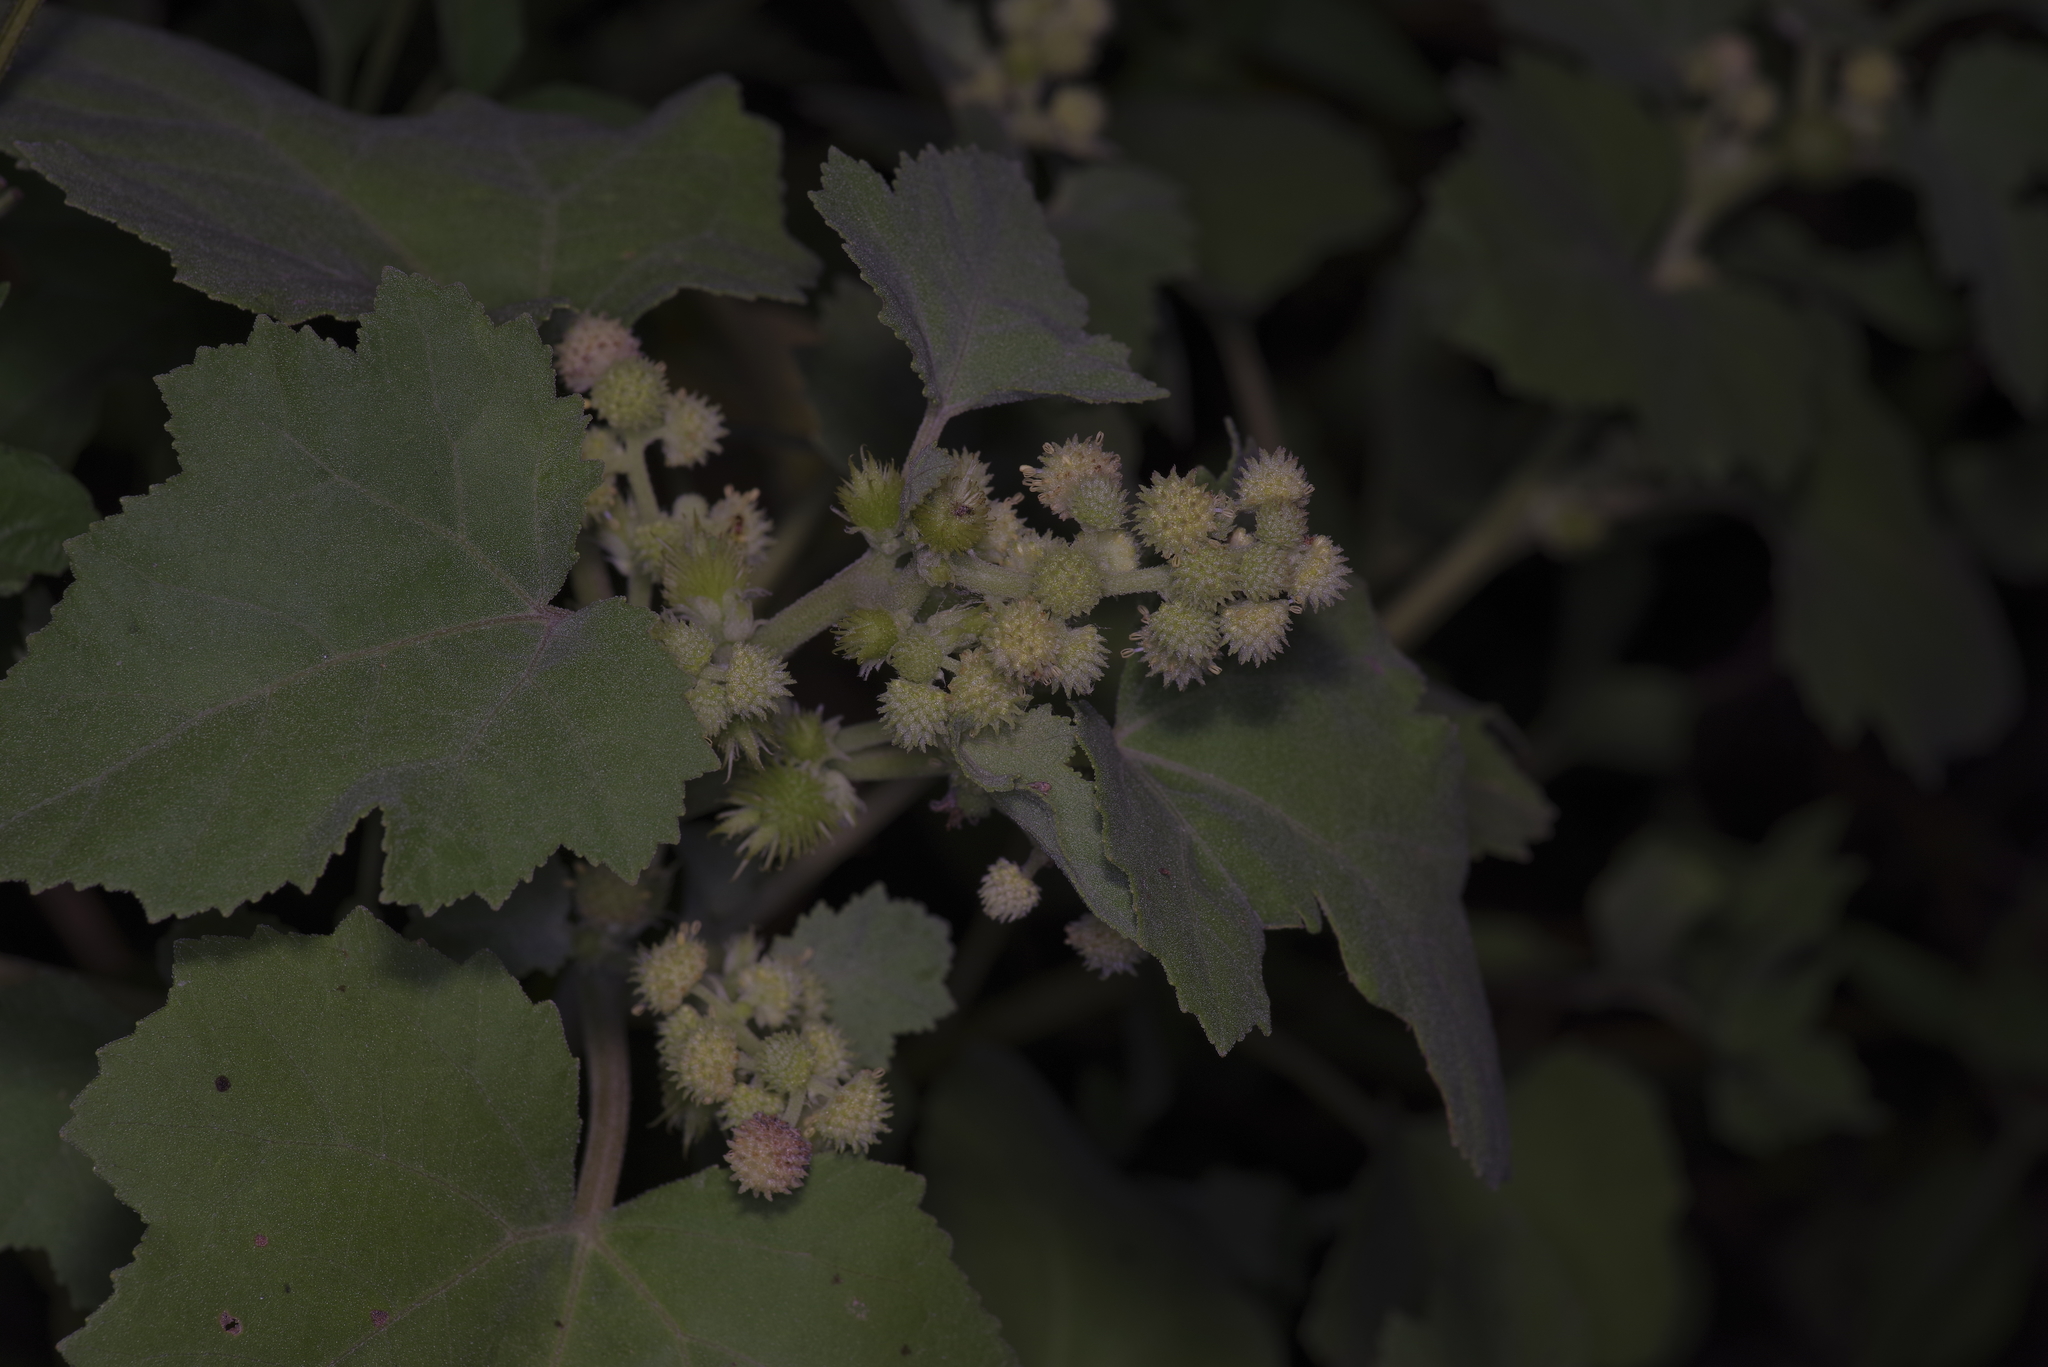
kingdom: Plantae
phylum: Tracheophyta
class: Magnoliopsida
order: Asterales
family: Asteraceae
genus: Xanthium
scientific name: Xanthium strumarium
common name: Rough cocklebur
